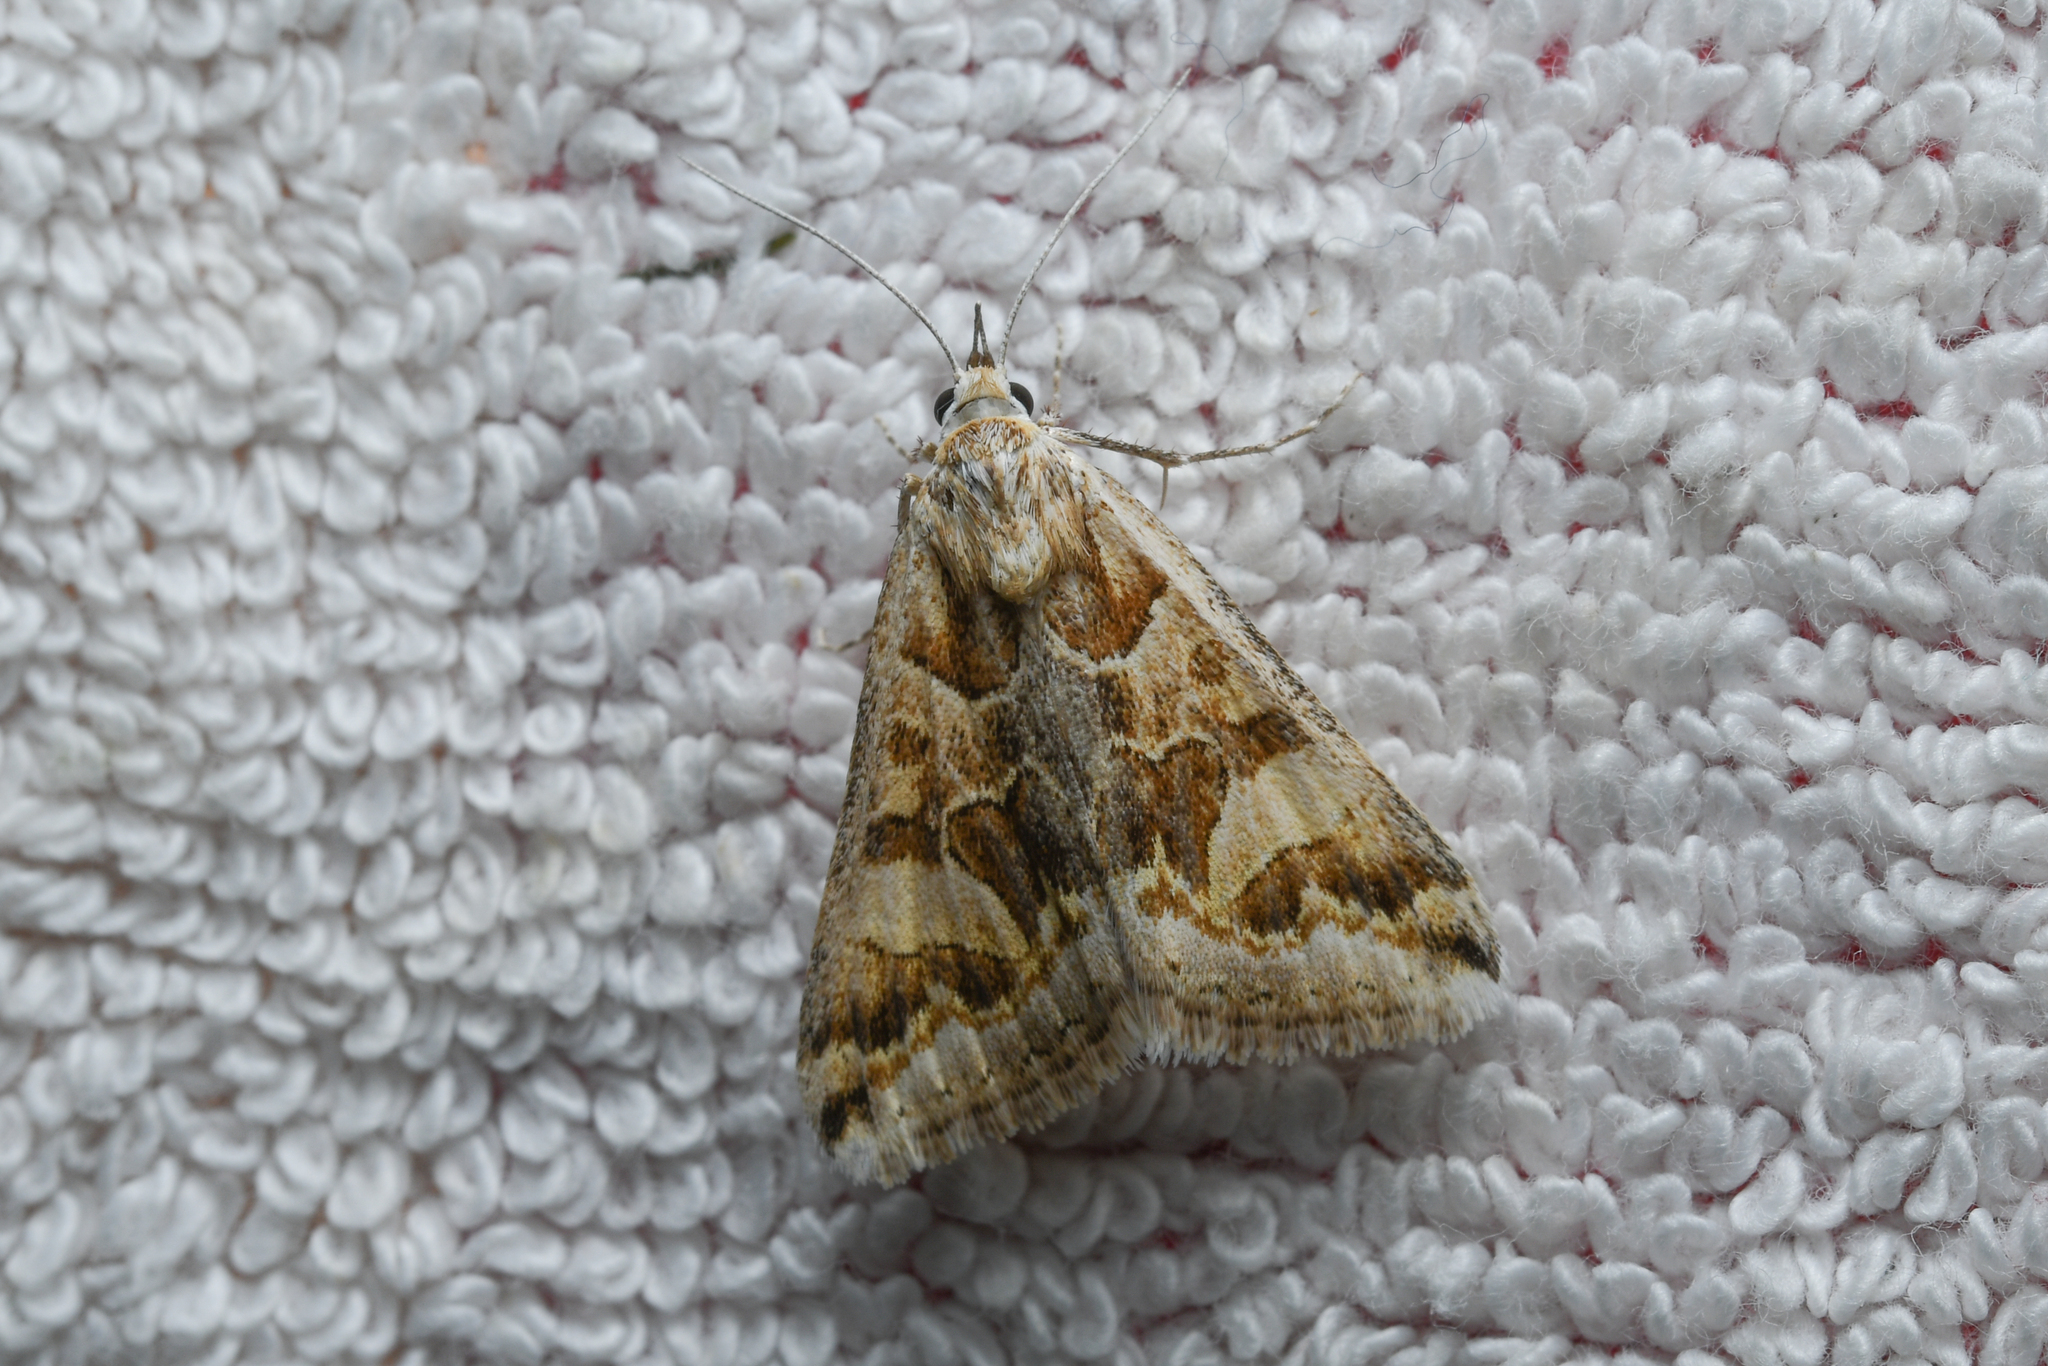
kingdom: Animalia
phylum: Arthropoda
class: Insecta
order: Lepidoptera
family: Erebidae
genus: Cerocala
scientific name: Cerocala scapulosa
